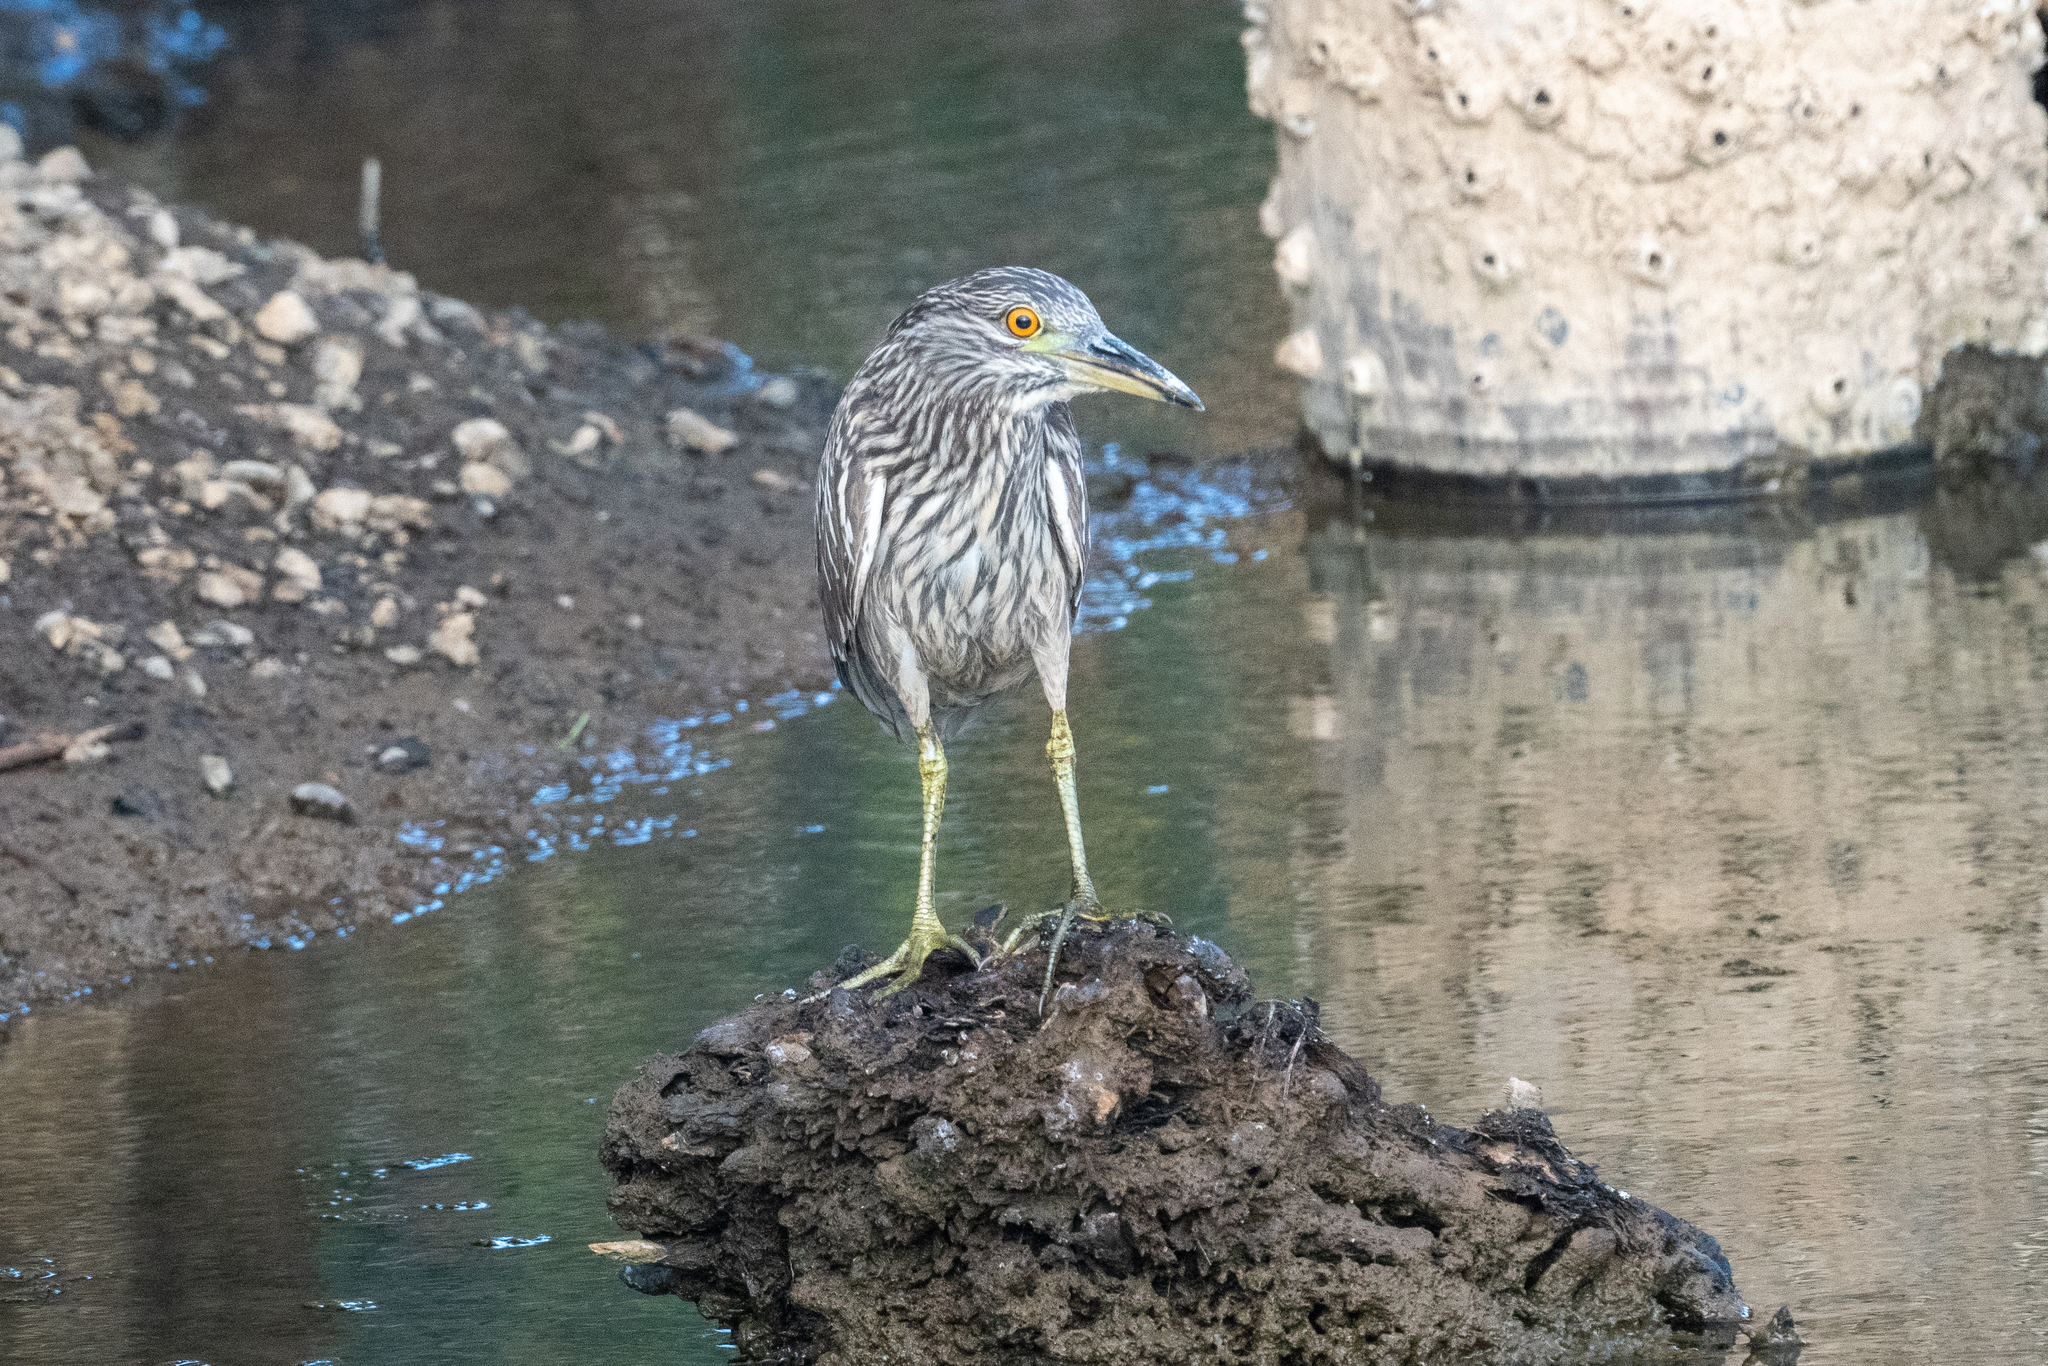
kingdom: Animalia
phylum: Chordata
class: Aves
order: Pelecaniformes
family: Ardeidae
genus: Nycticorax
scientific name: Nycticorax nycticorax
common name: Black-crowned night heron
